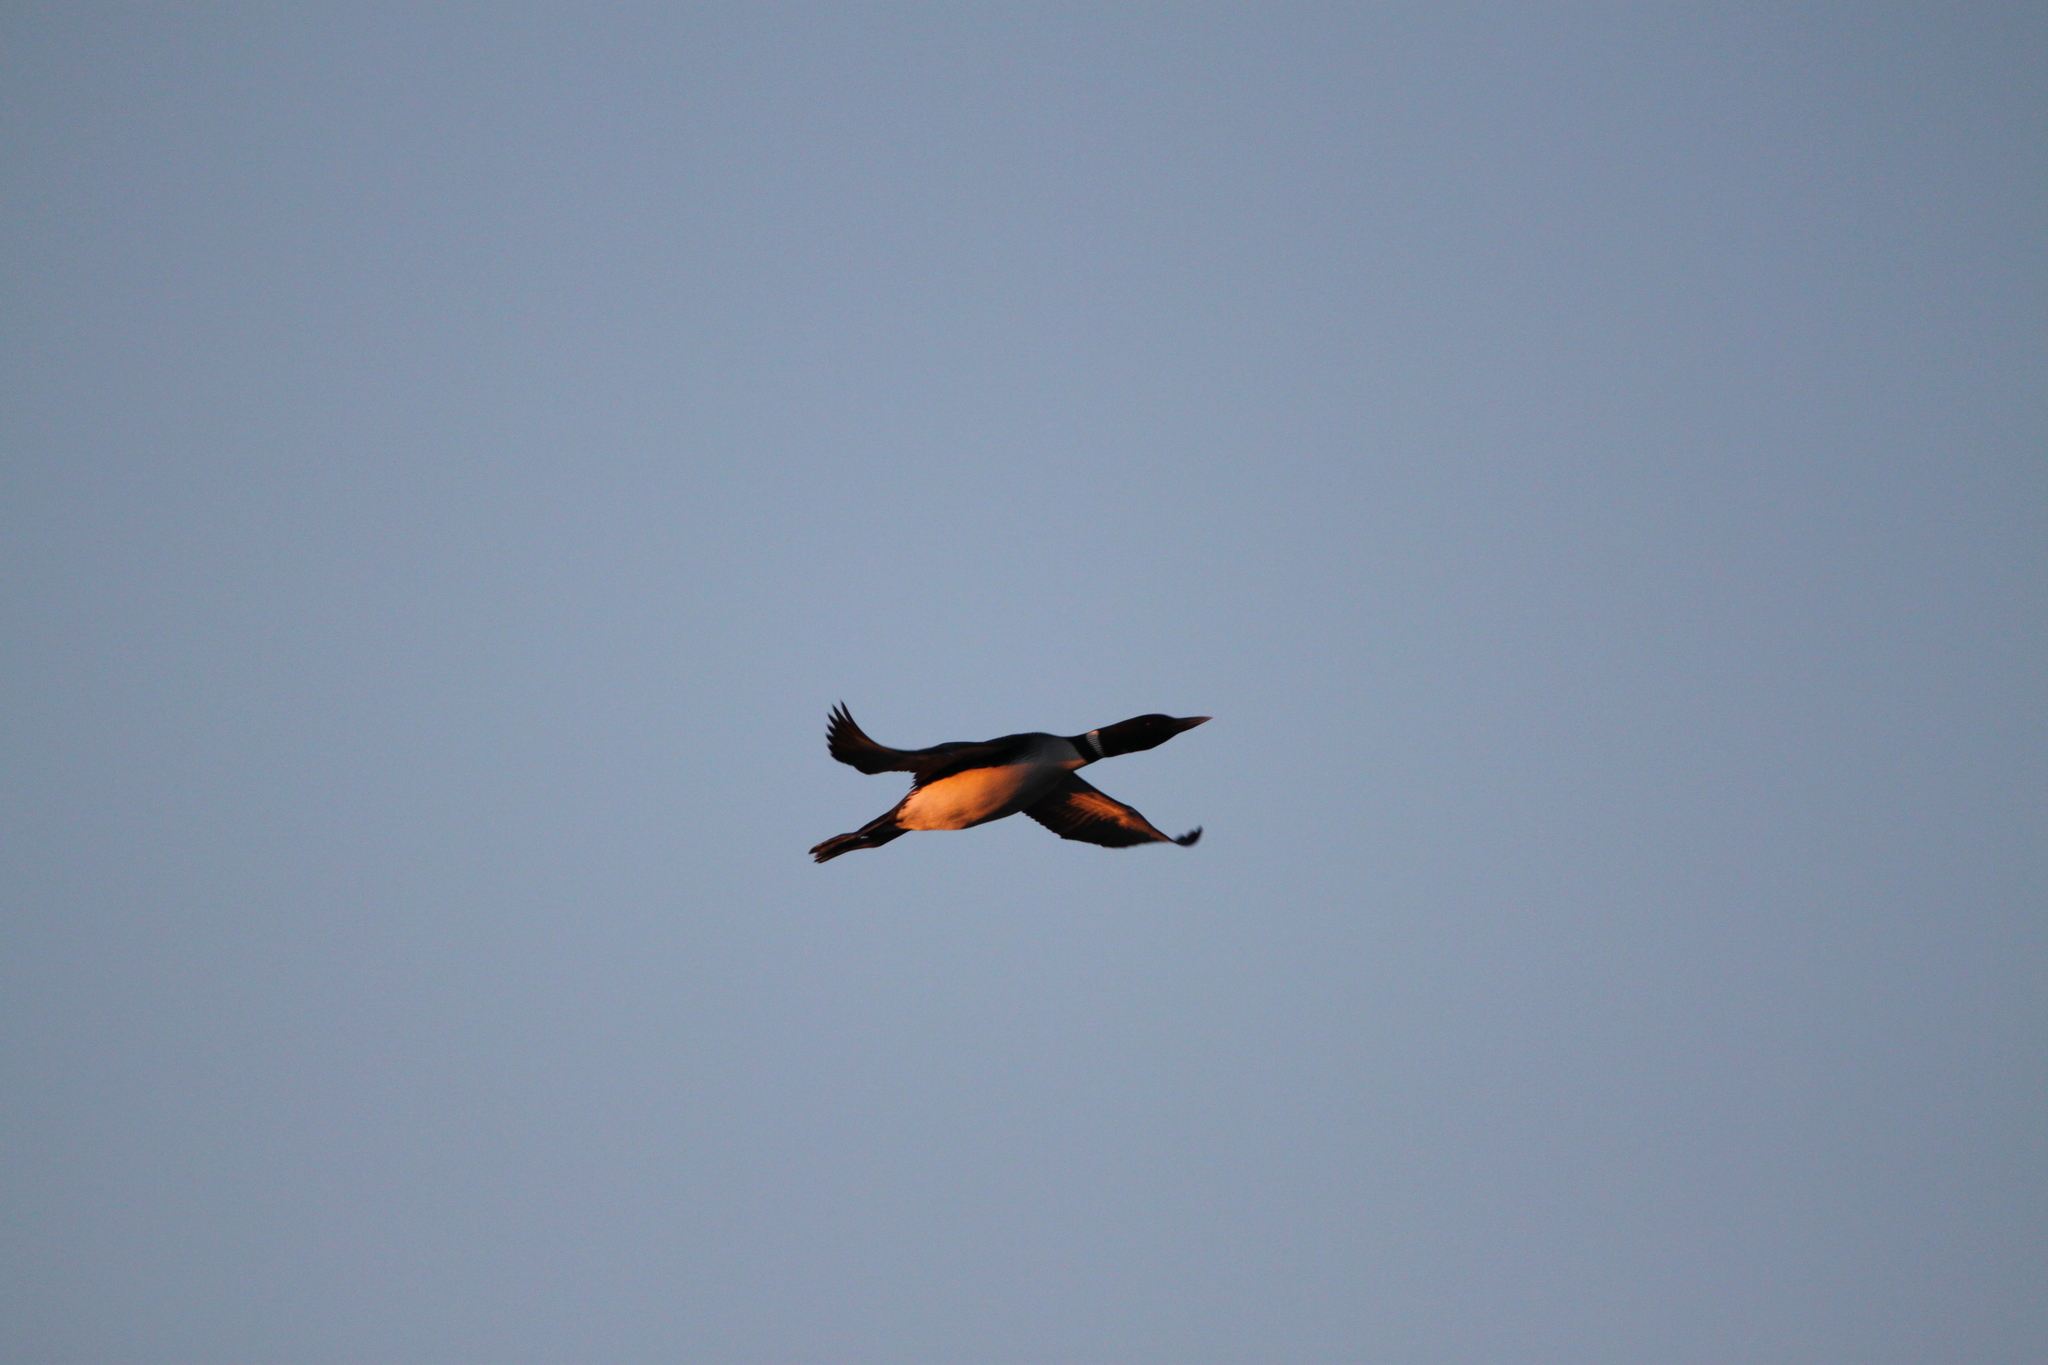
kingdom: Animalia
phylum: Chordata
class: Aves
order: Gaviiformes
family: Gaviidae
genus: Gavia
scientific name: Gavia immer
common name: Common loon
